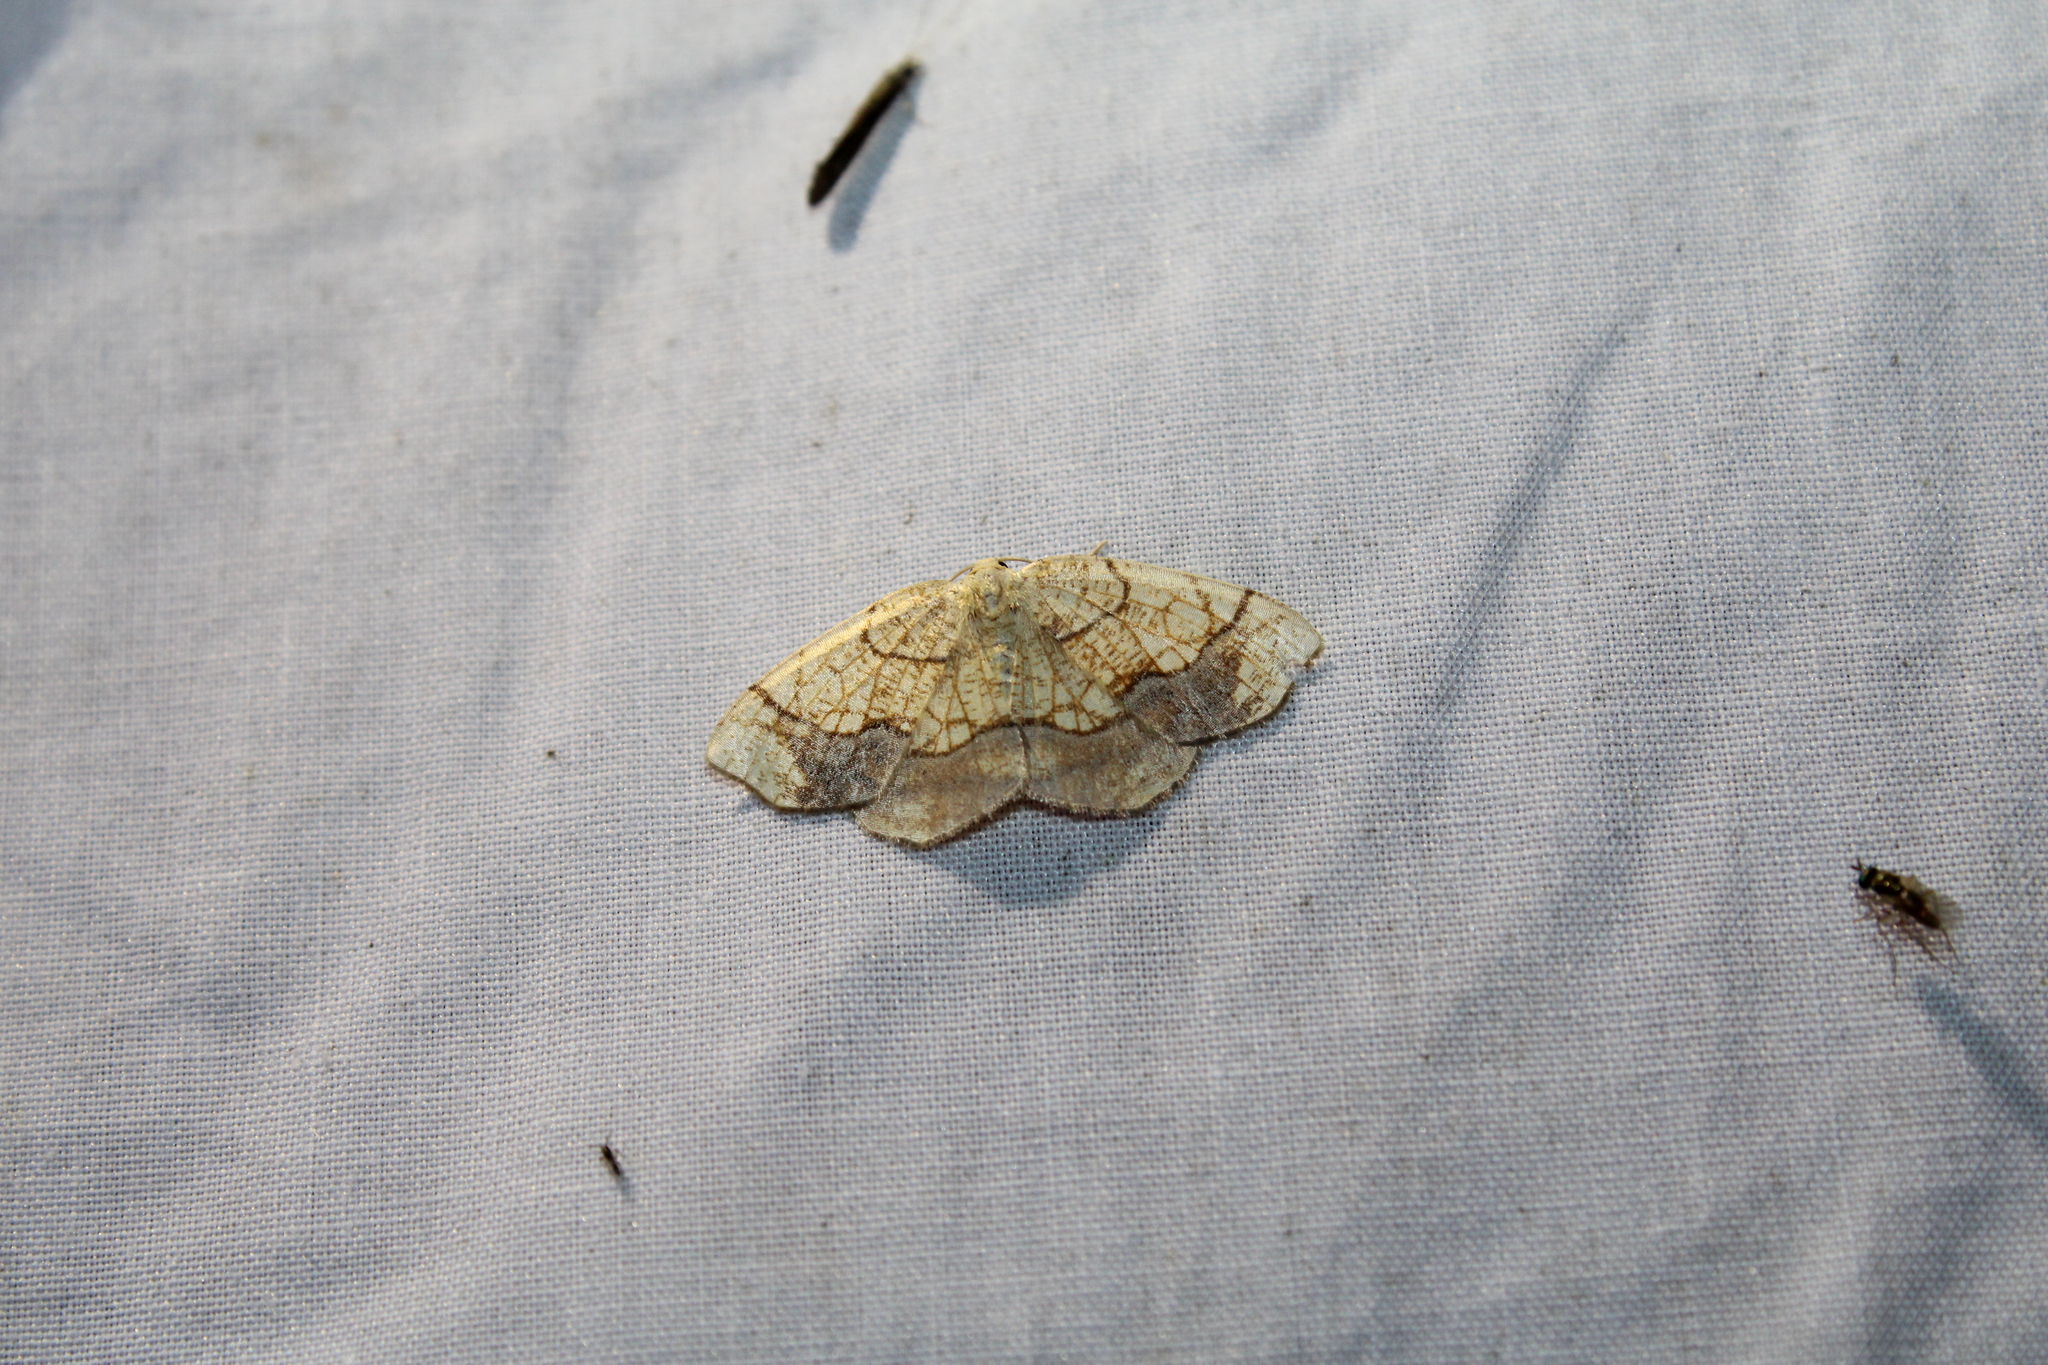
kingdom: Animalia
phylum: Arthropoda
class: Insecta
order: Lepidoptera
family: Geometridae
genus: Nematocampa
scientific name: Nematocampa resistaria
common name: Horned spanworm moth
